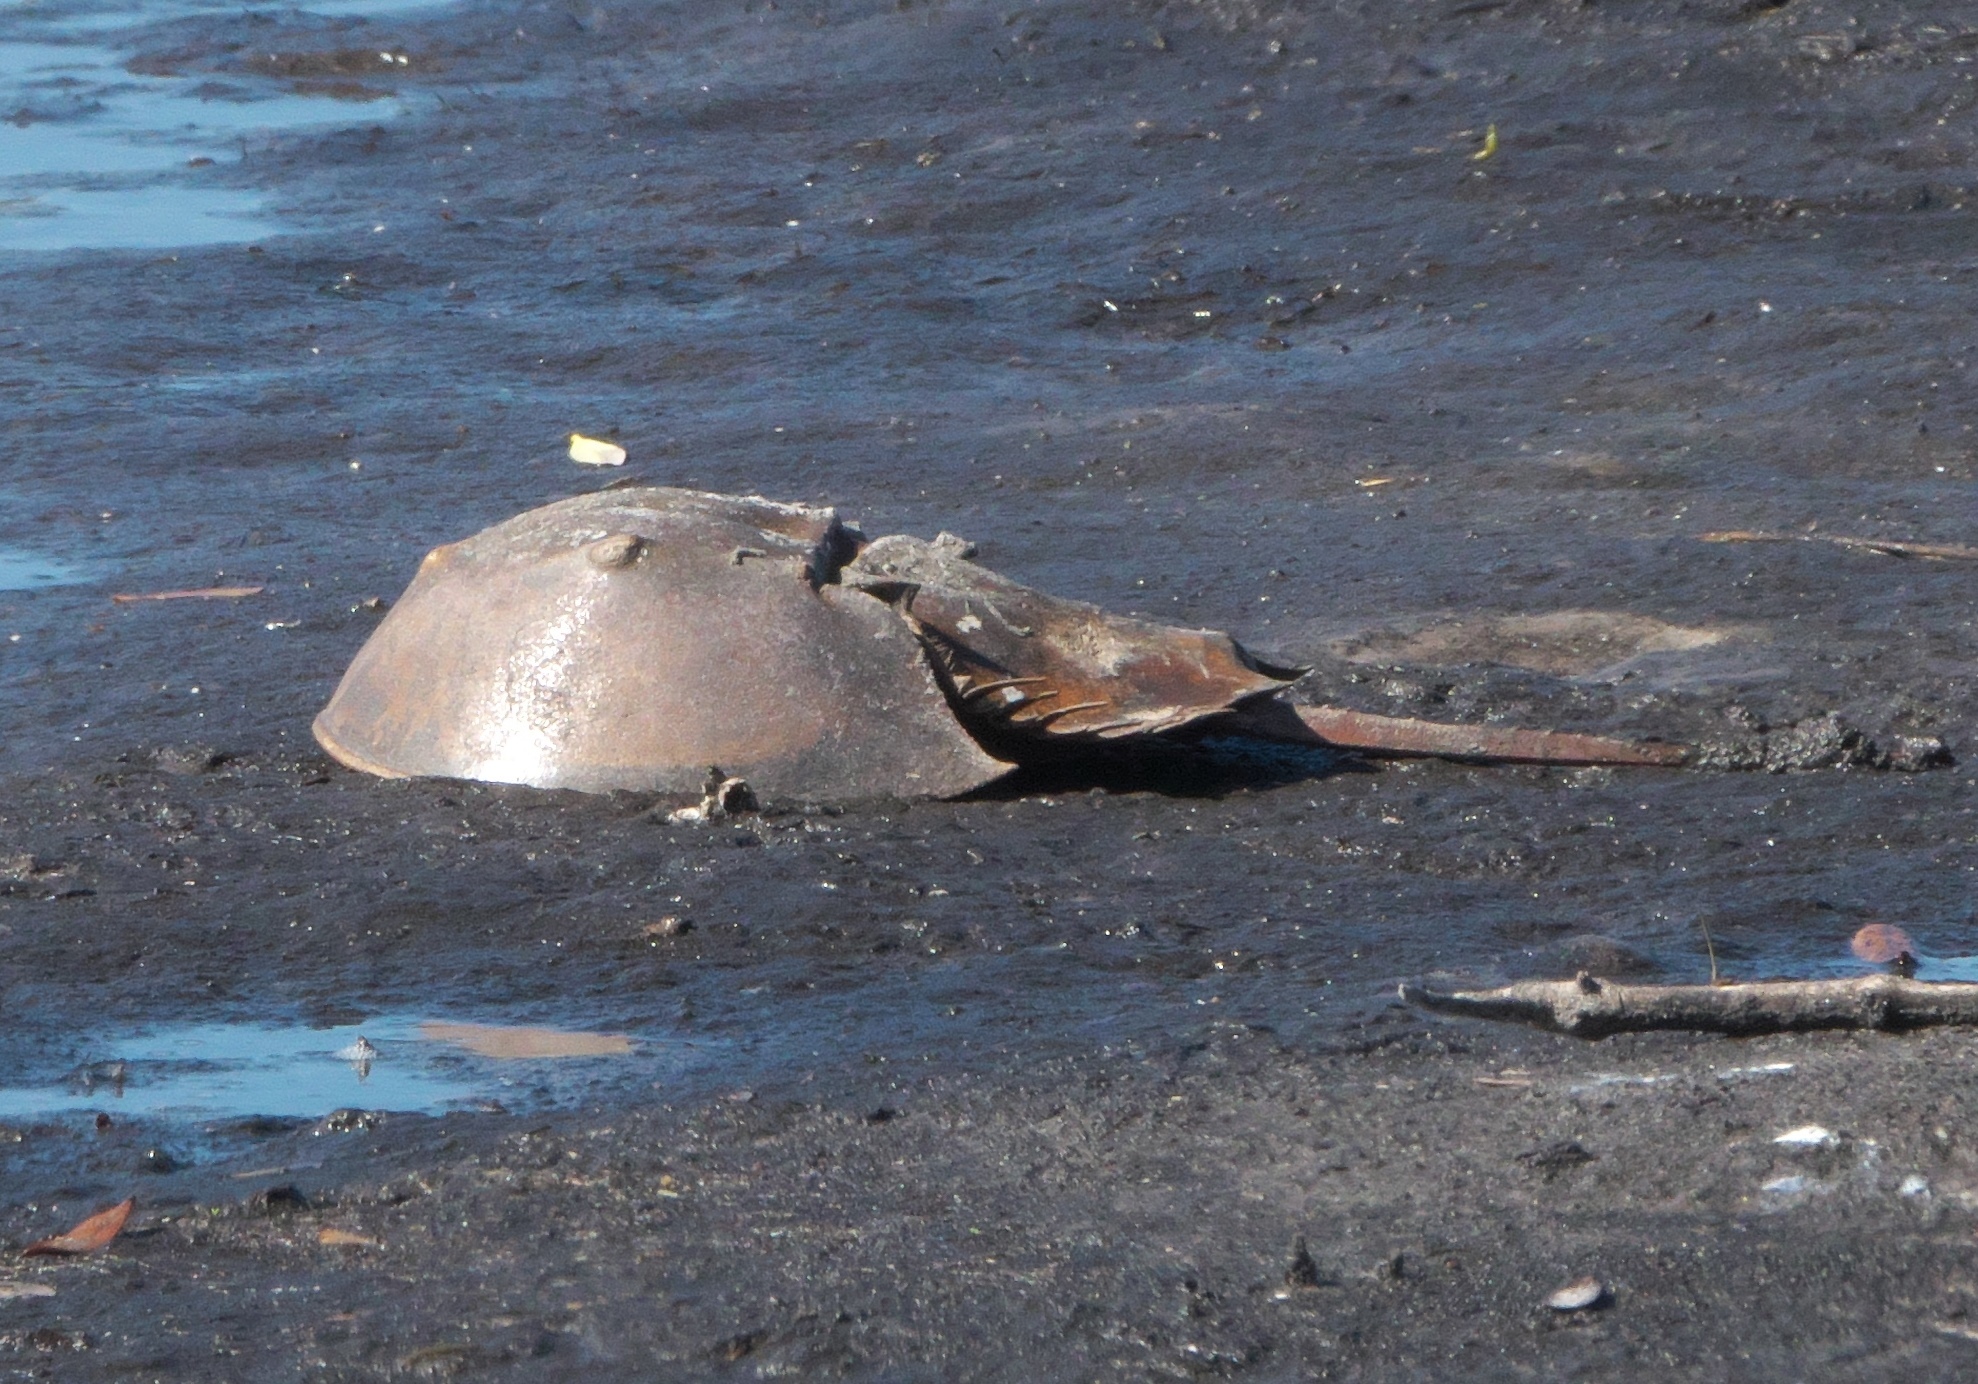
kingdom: Animalia
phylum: Arthropoda
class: Merostomata
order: Xiphosurida
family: Limulidae
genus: Limulus
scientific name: Limulus polyphemus
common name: Horseshoe crab
